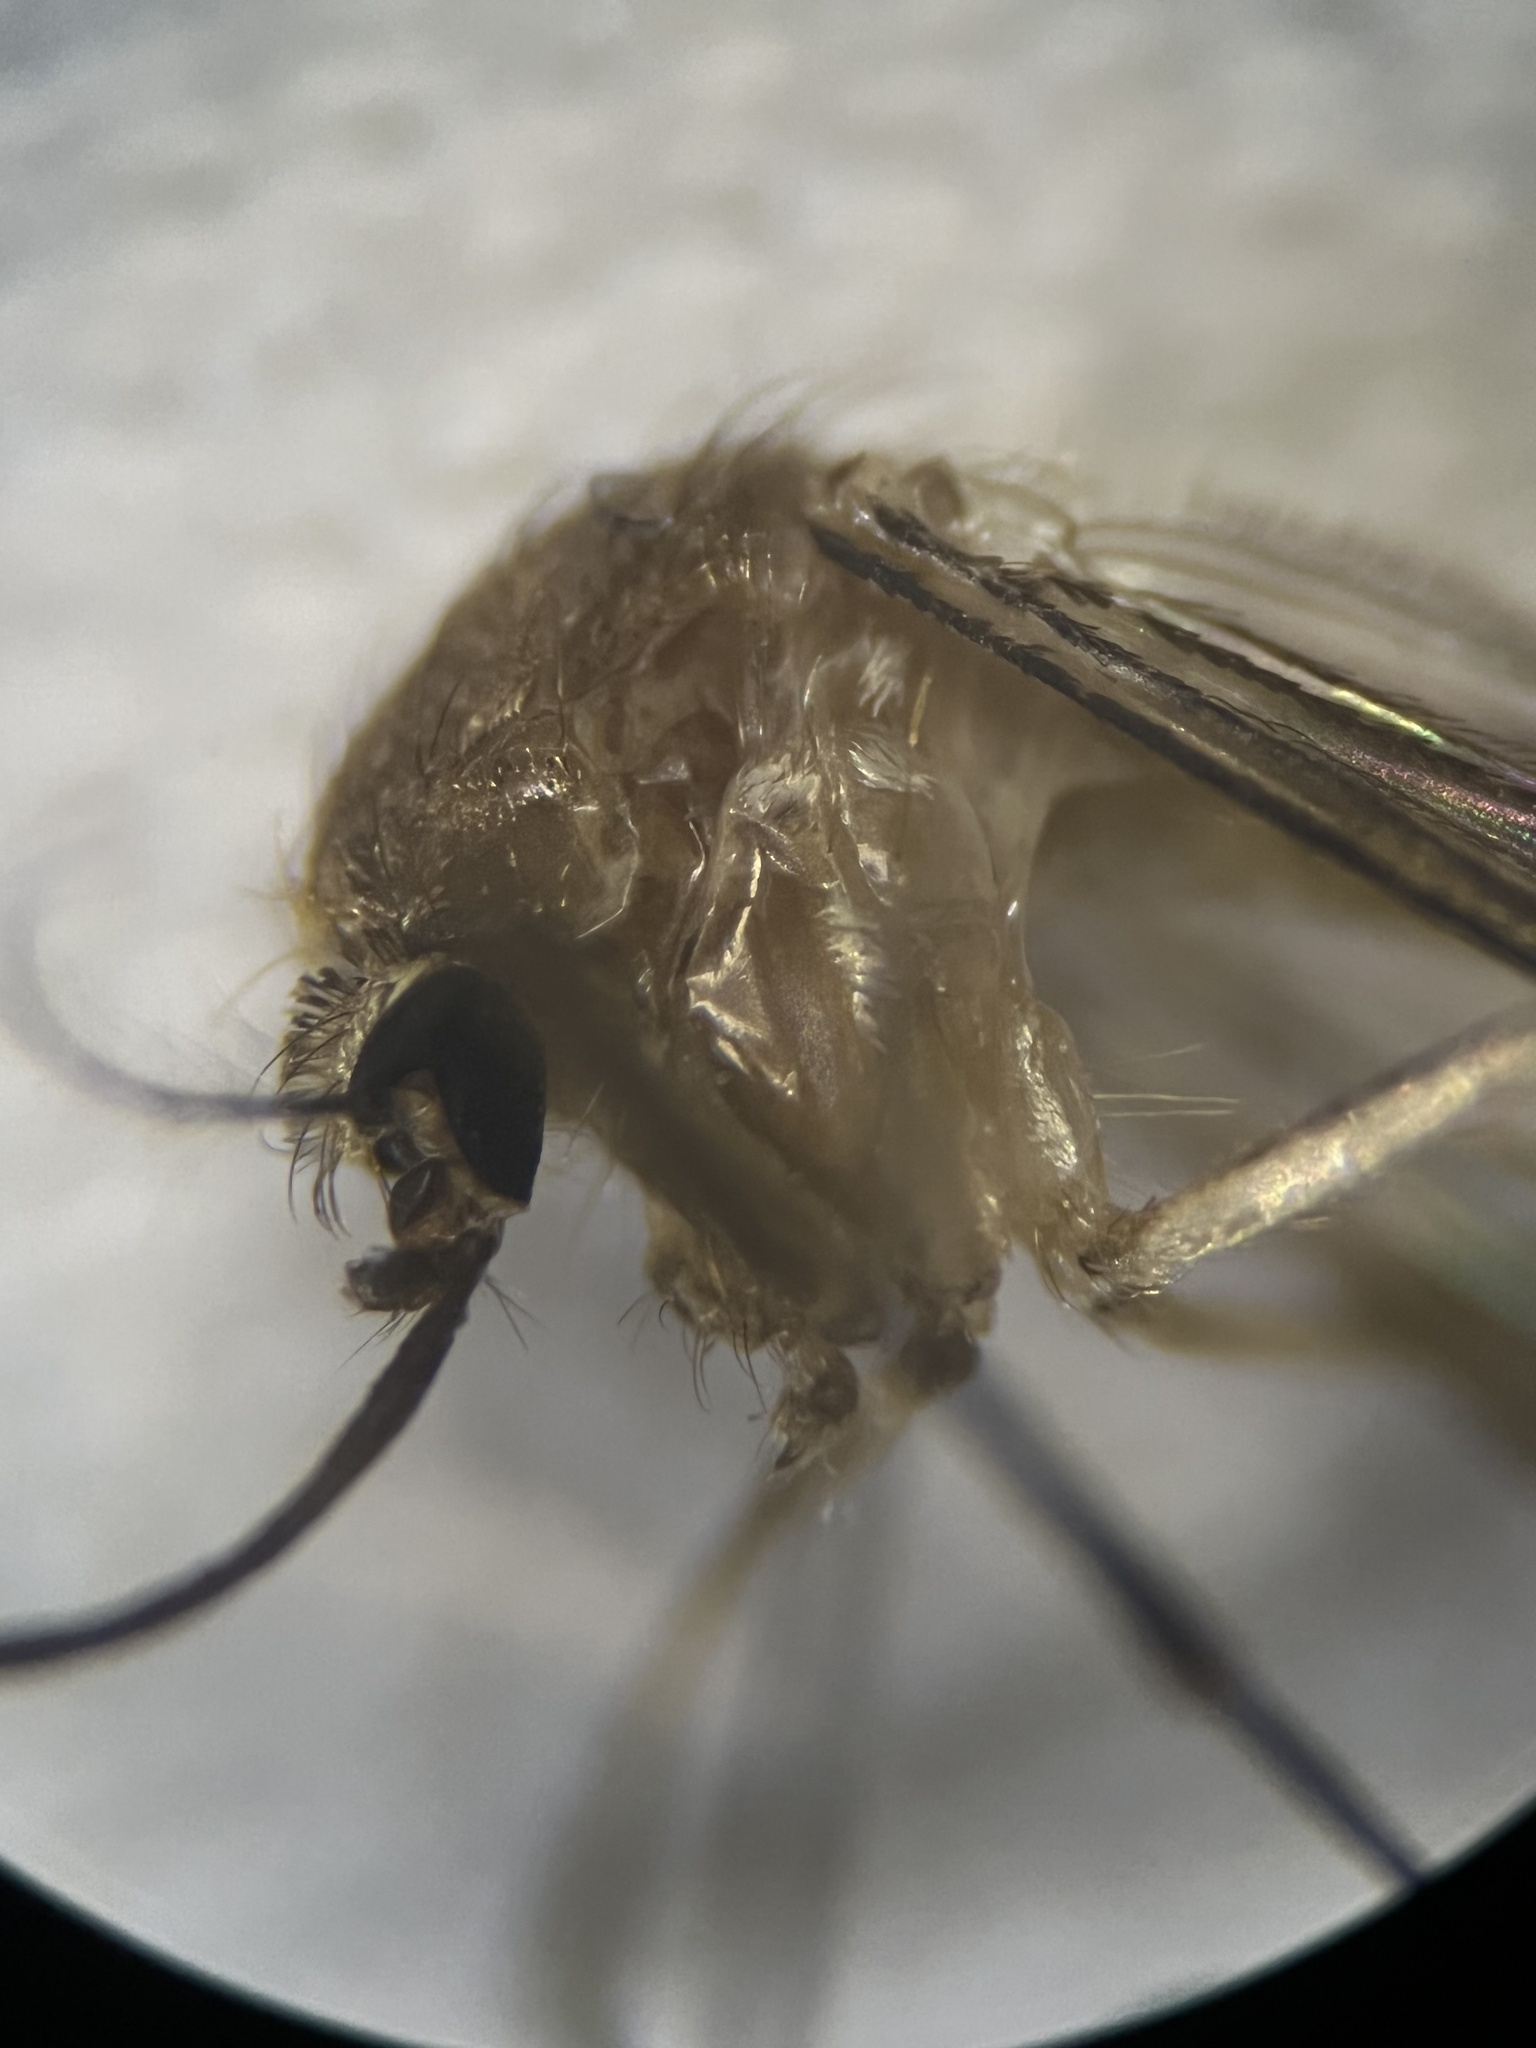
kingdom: Animalia
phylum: Arthropoda
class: Insecta
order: Diptera
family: Culicidae
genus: Culex
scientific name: Culex quinquefasciatus
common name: Southern house mosquito
